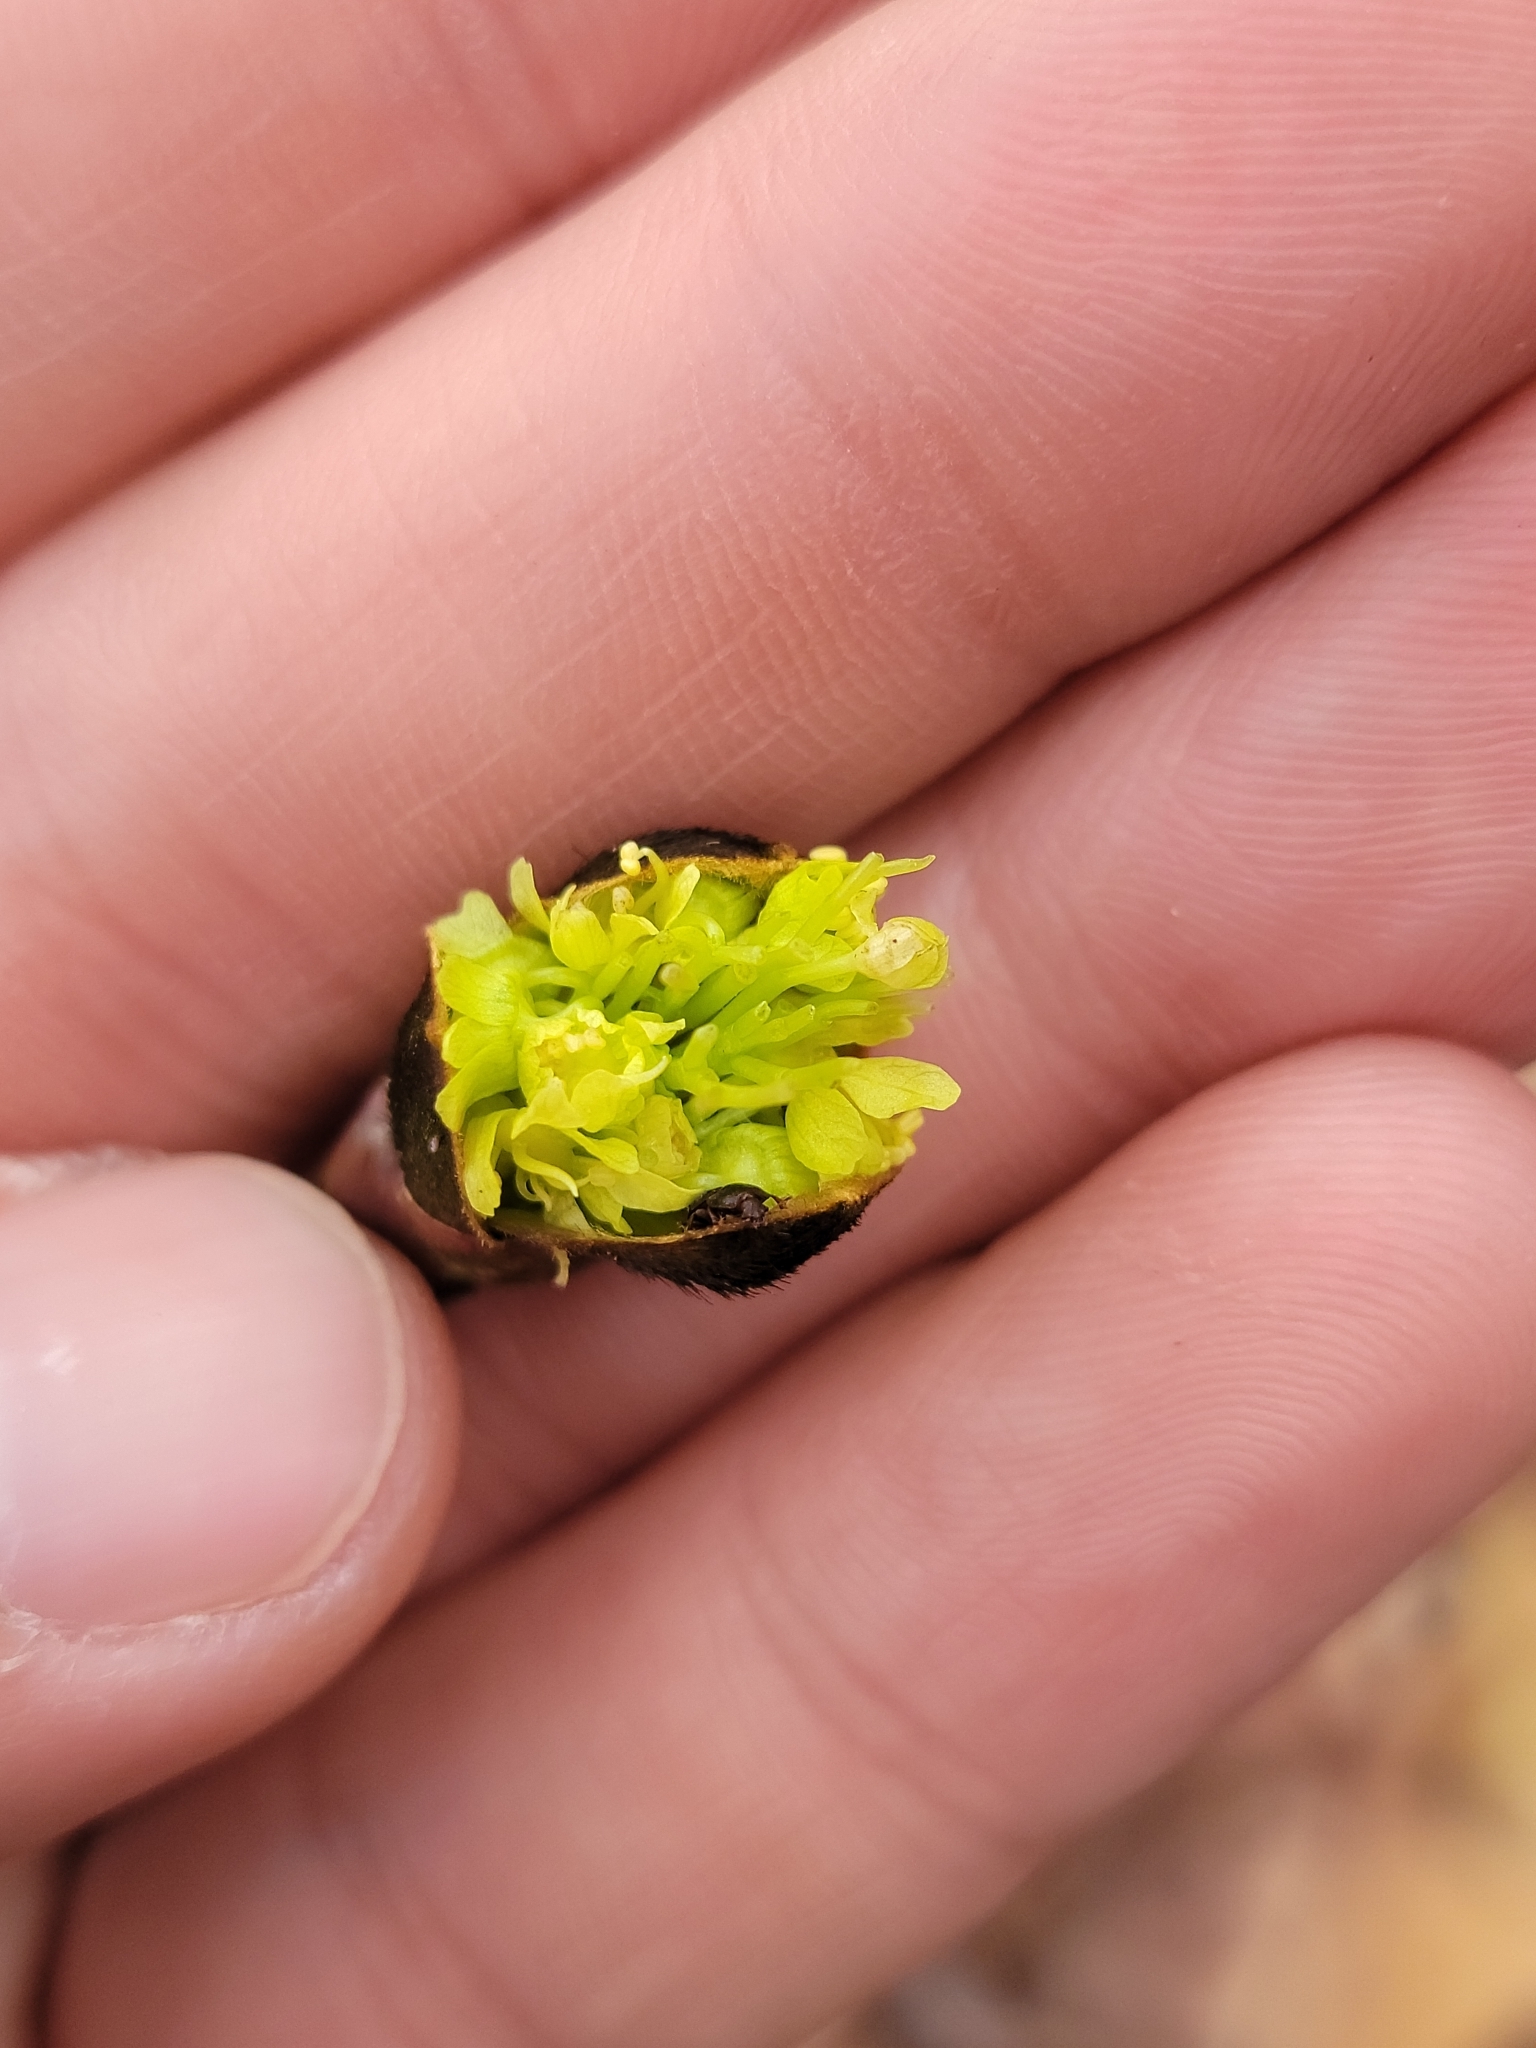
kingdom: Plantae
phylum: Tracheophyta
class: Magnoliopsida
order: Laurales
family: Lauraceae
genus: Sassafras
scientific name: Sassafras albidum
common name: Sassafras
